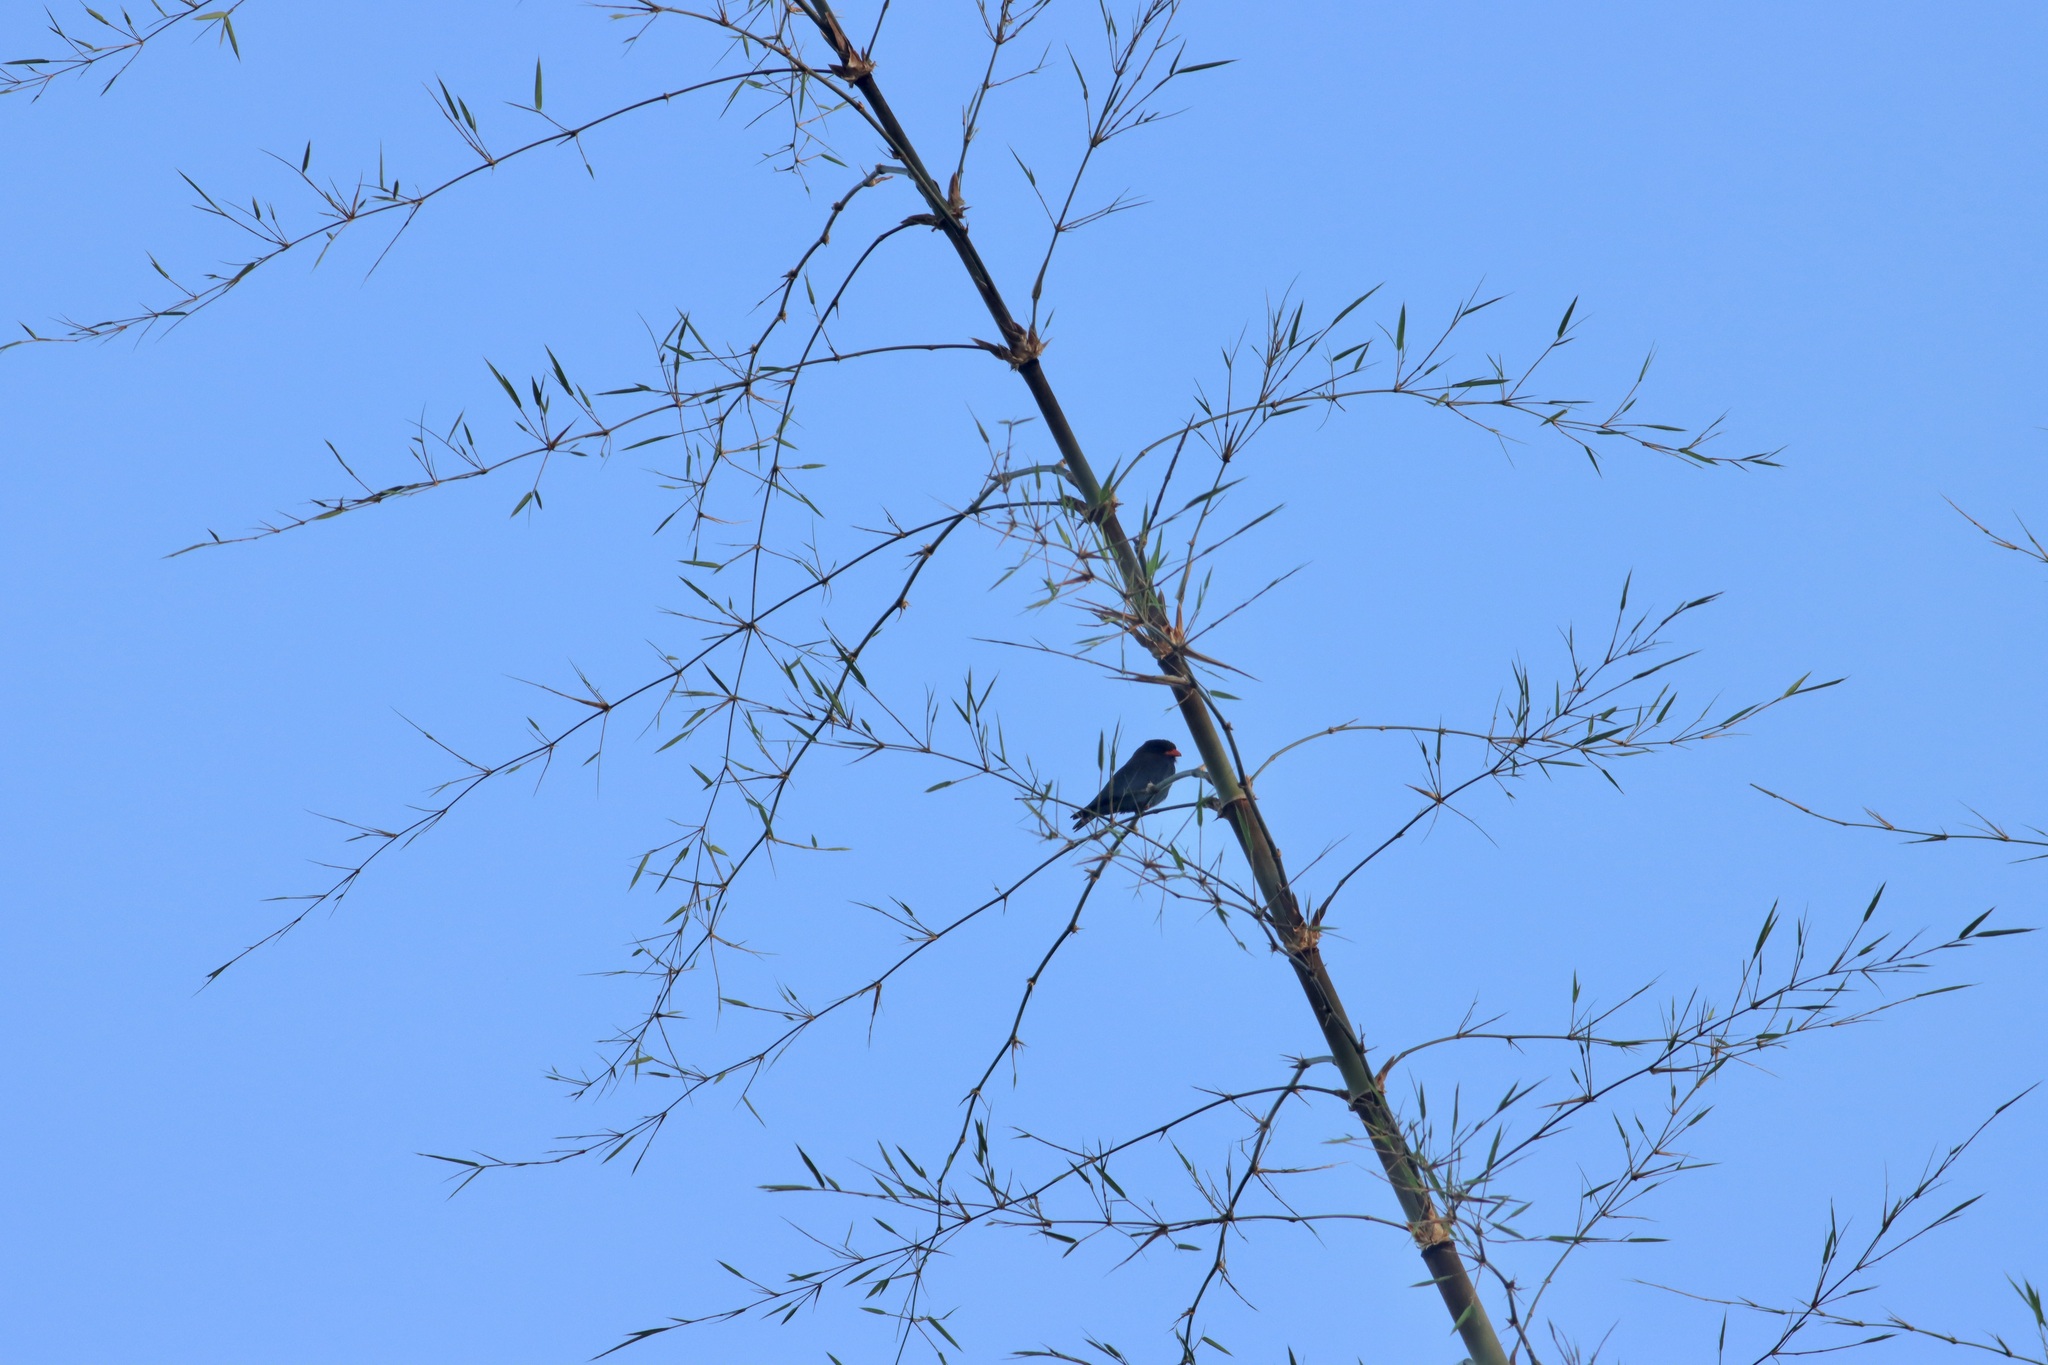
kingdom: Animalia
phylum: Chordata
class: Aves
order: Coraciiformes
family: Coraciidae
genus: Eurystomus
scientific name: Eurystomus orientalis
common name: Oriental dollarbird
